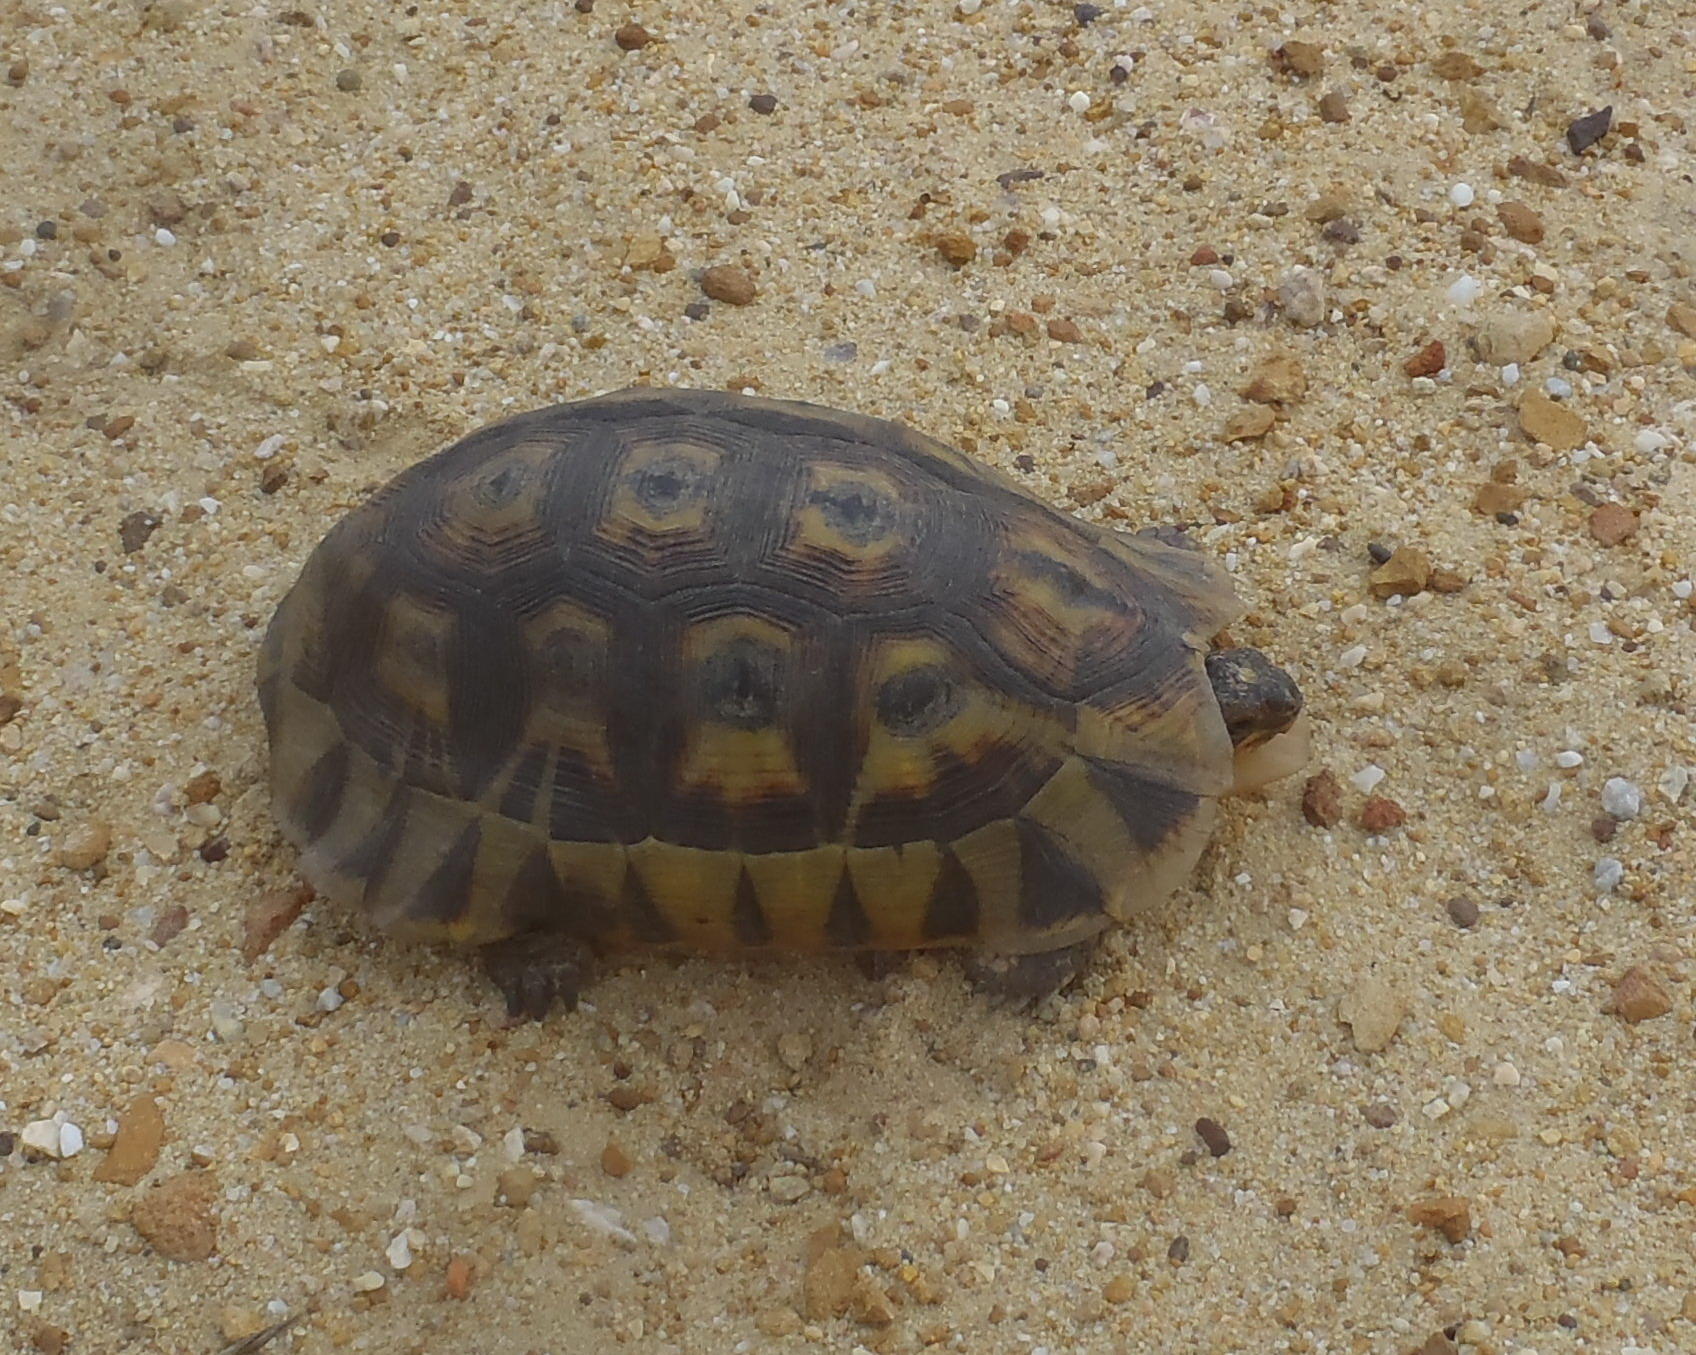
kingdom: Animalia
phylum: Chordata
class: Testudines
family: Testudinidae
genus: Chersina
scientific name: Chersina angulata
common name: South african bowsprit tortoise
